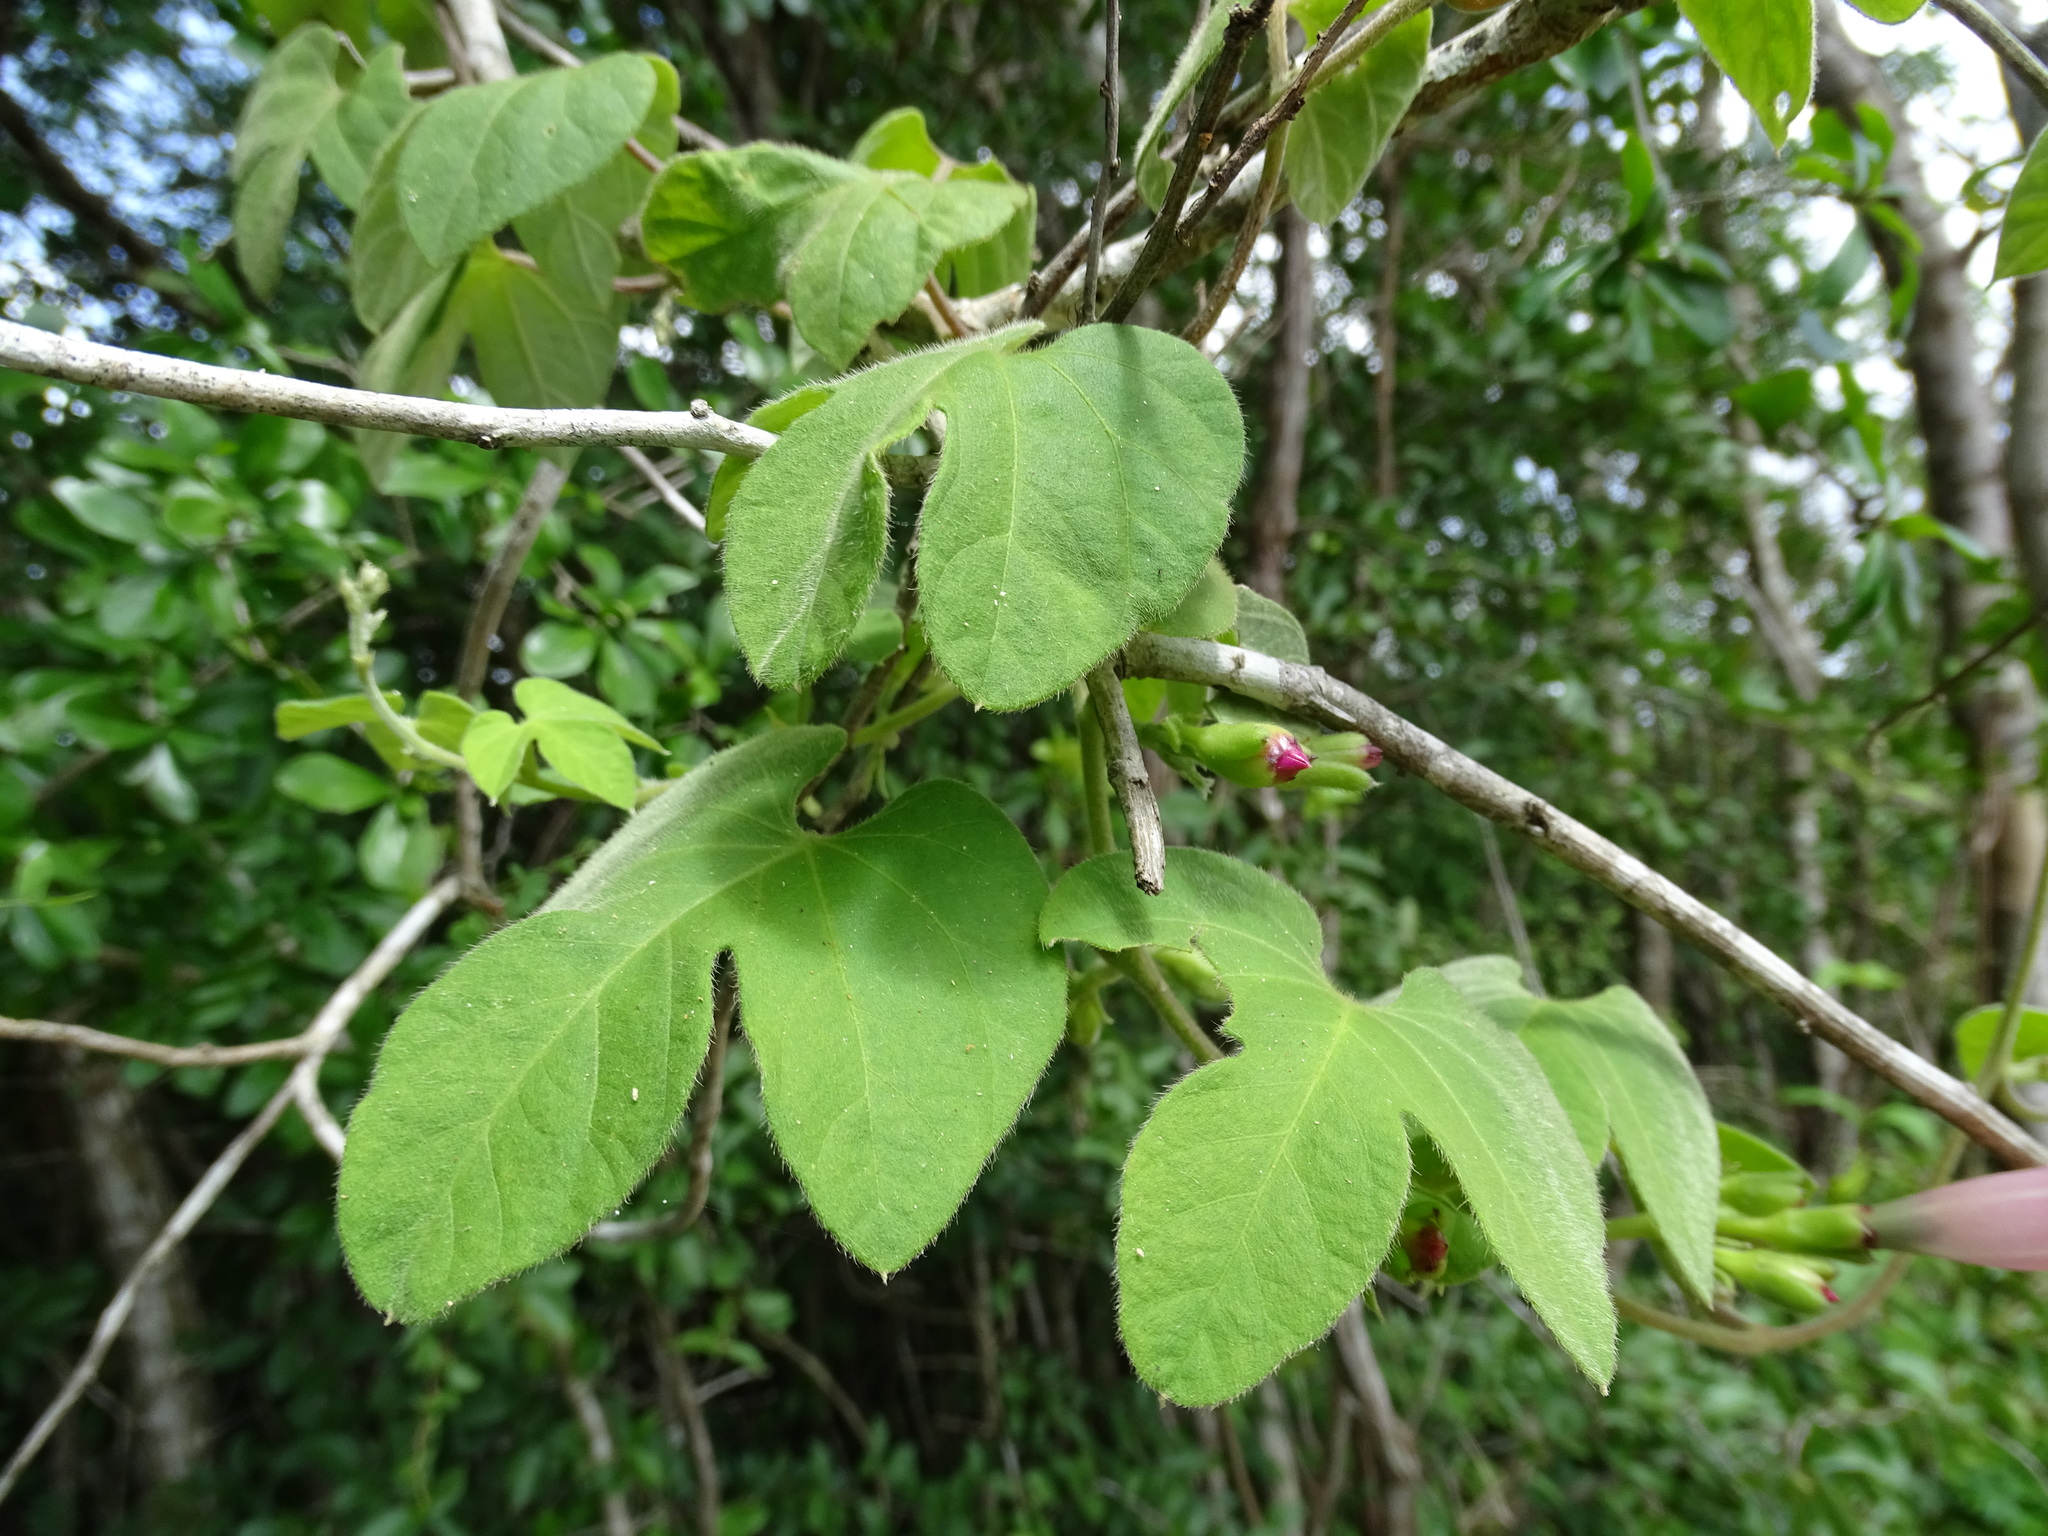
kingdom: Plantae
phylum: Tracheophyta
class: Magnoliopsida
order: Solanales
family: Convolvulaceae
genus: Ipomoea
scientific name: Ipomoea peteri
